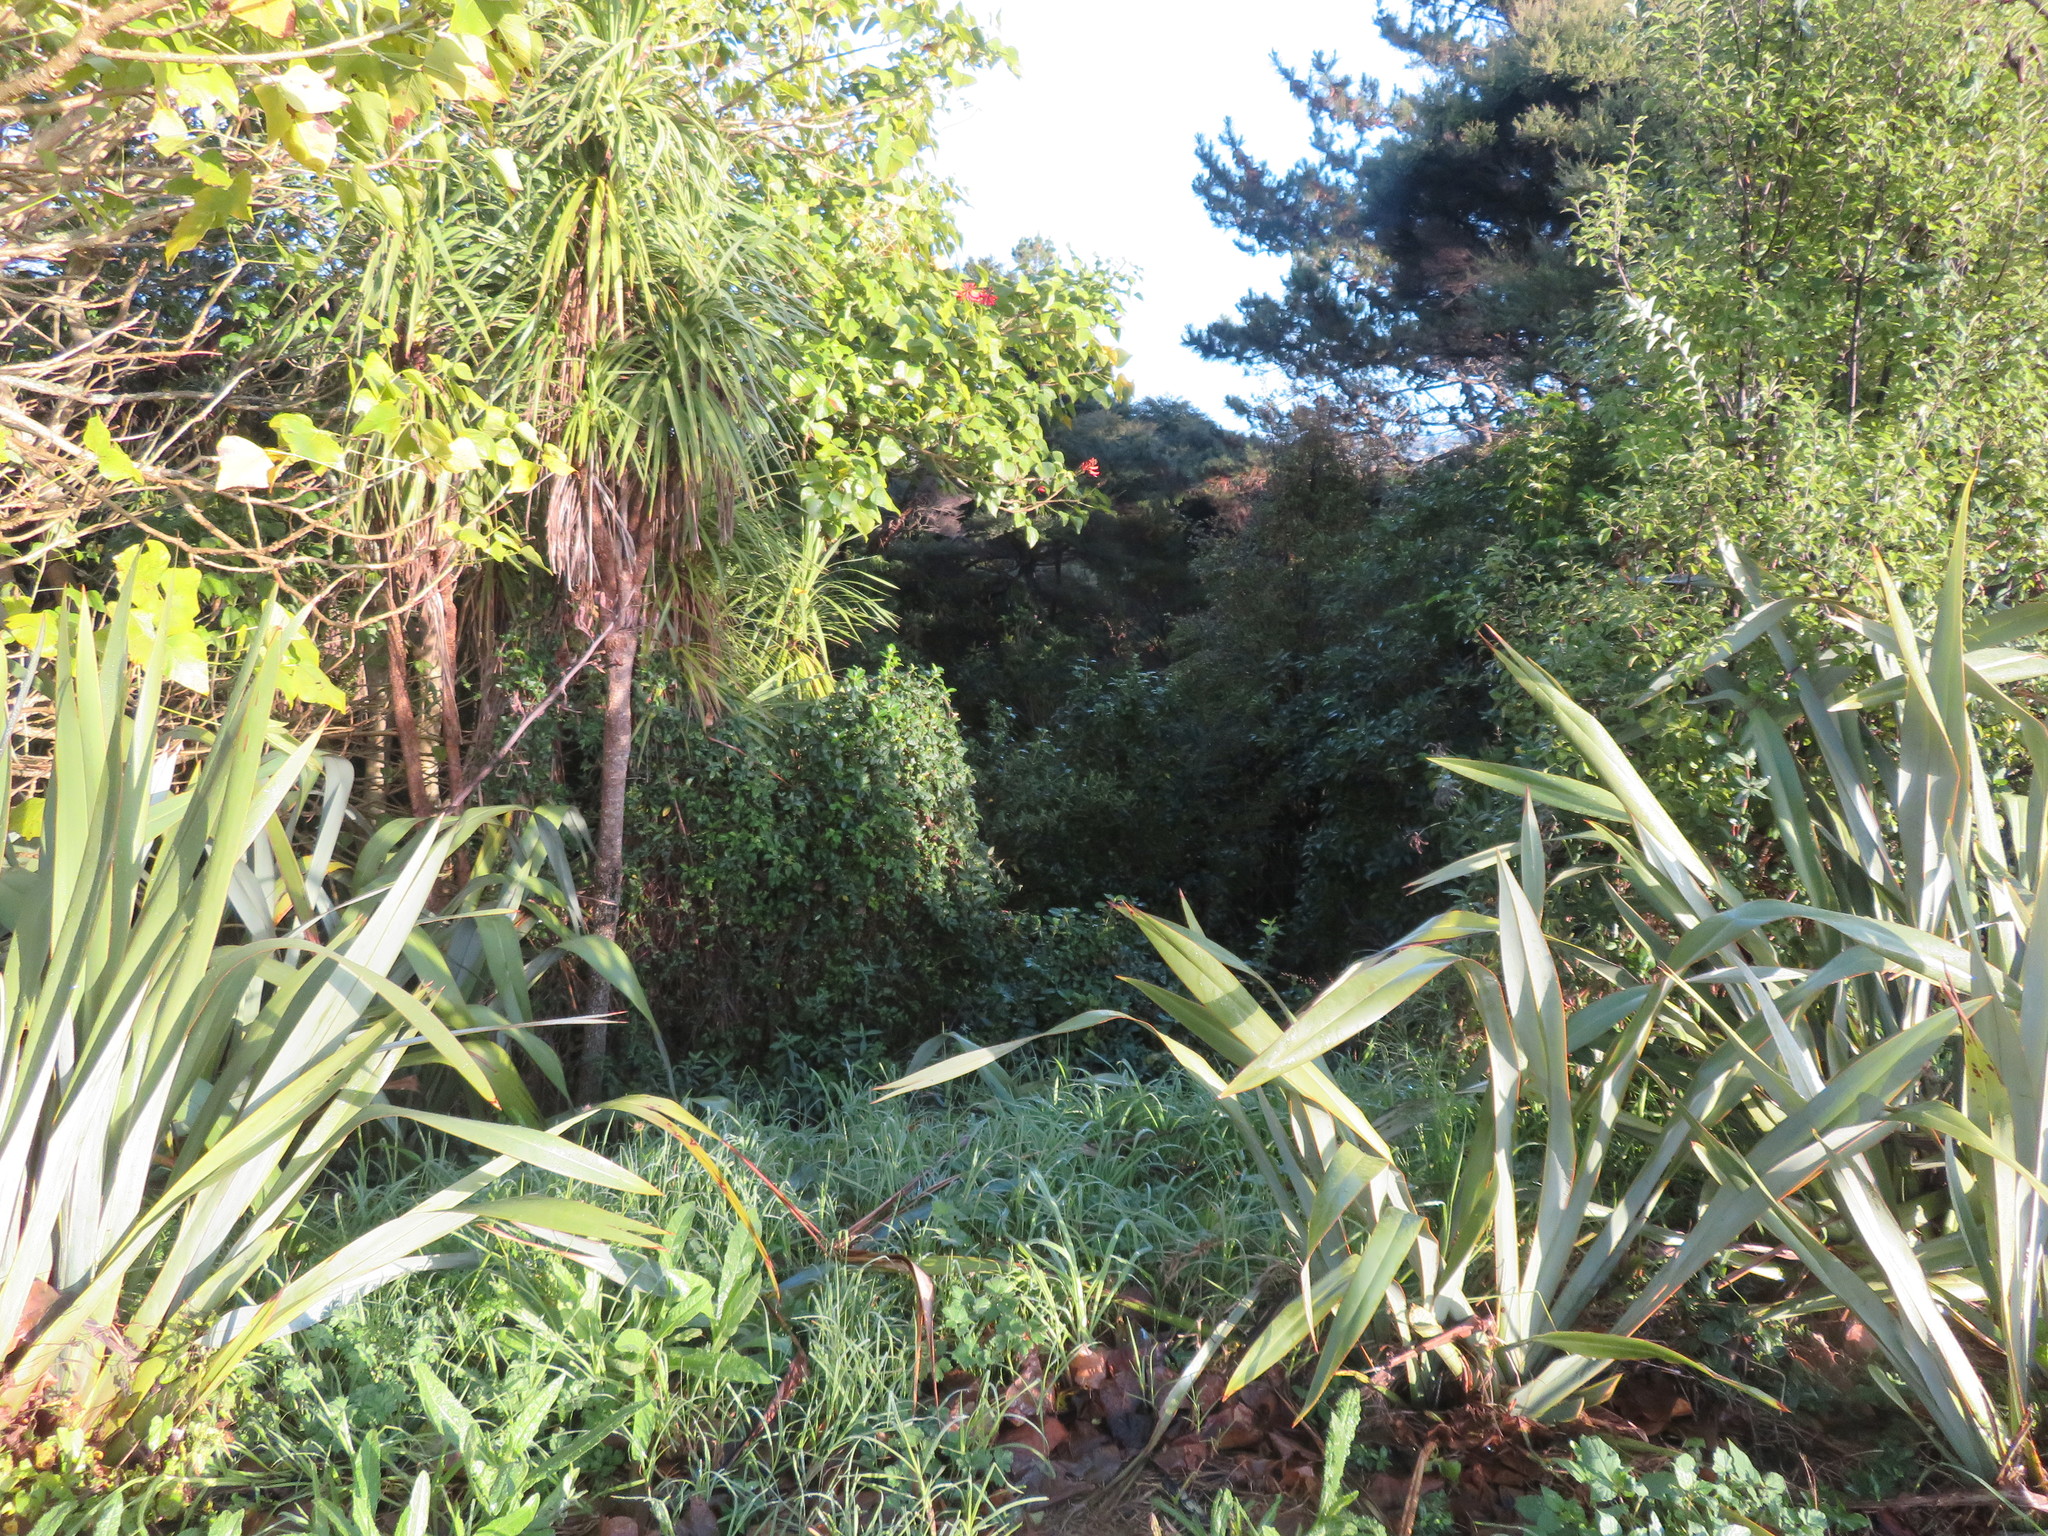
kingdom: Plantae
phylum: Tracheophyta
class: Liliopsida
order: Asparagales
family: Asparagaceae
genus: Cordyline
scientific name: Cordyline australis
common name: Cabbage-palm
